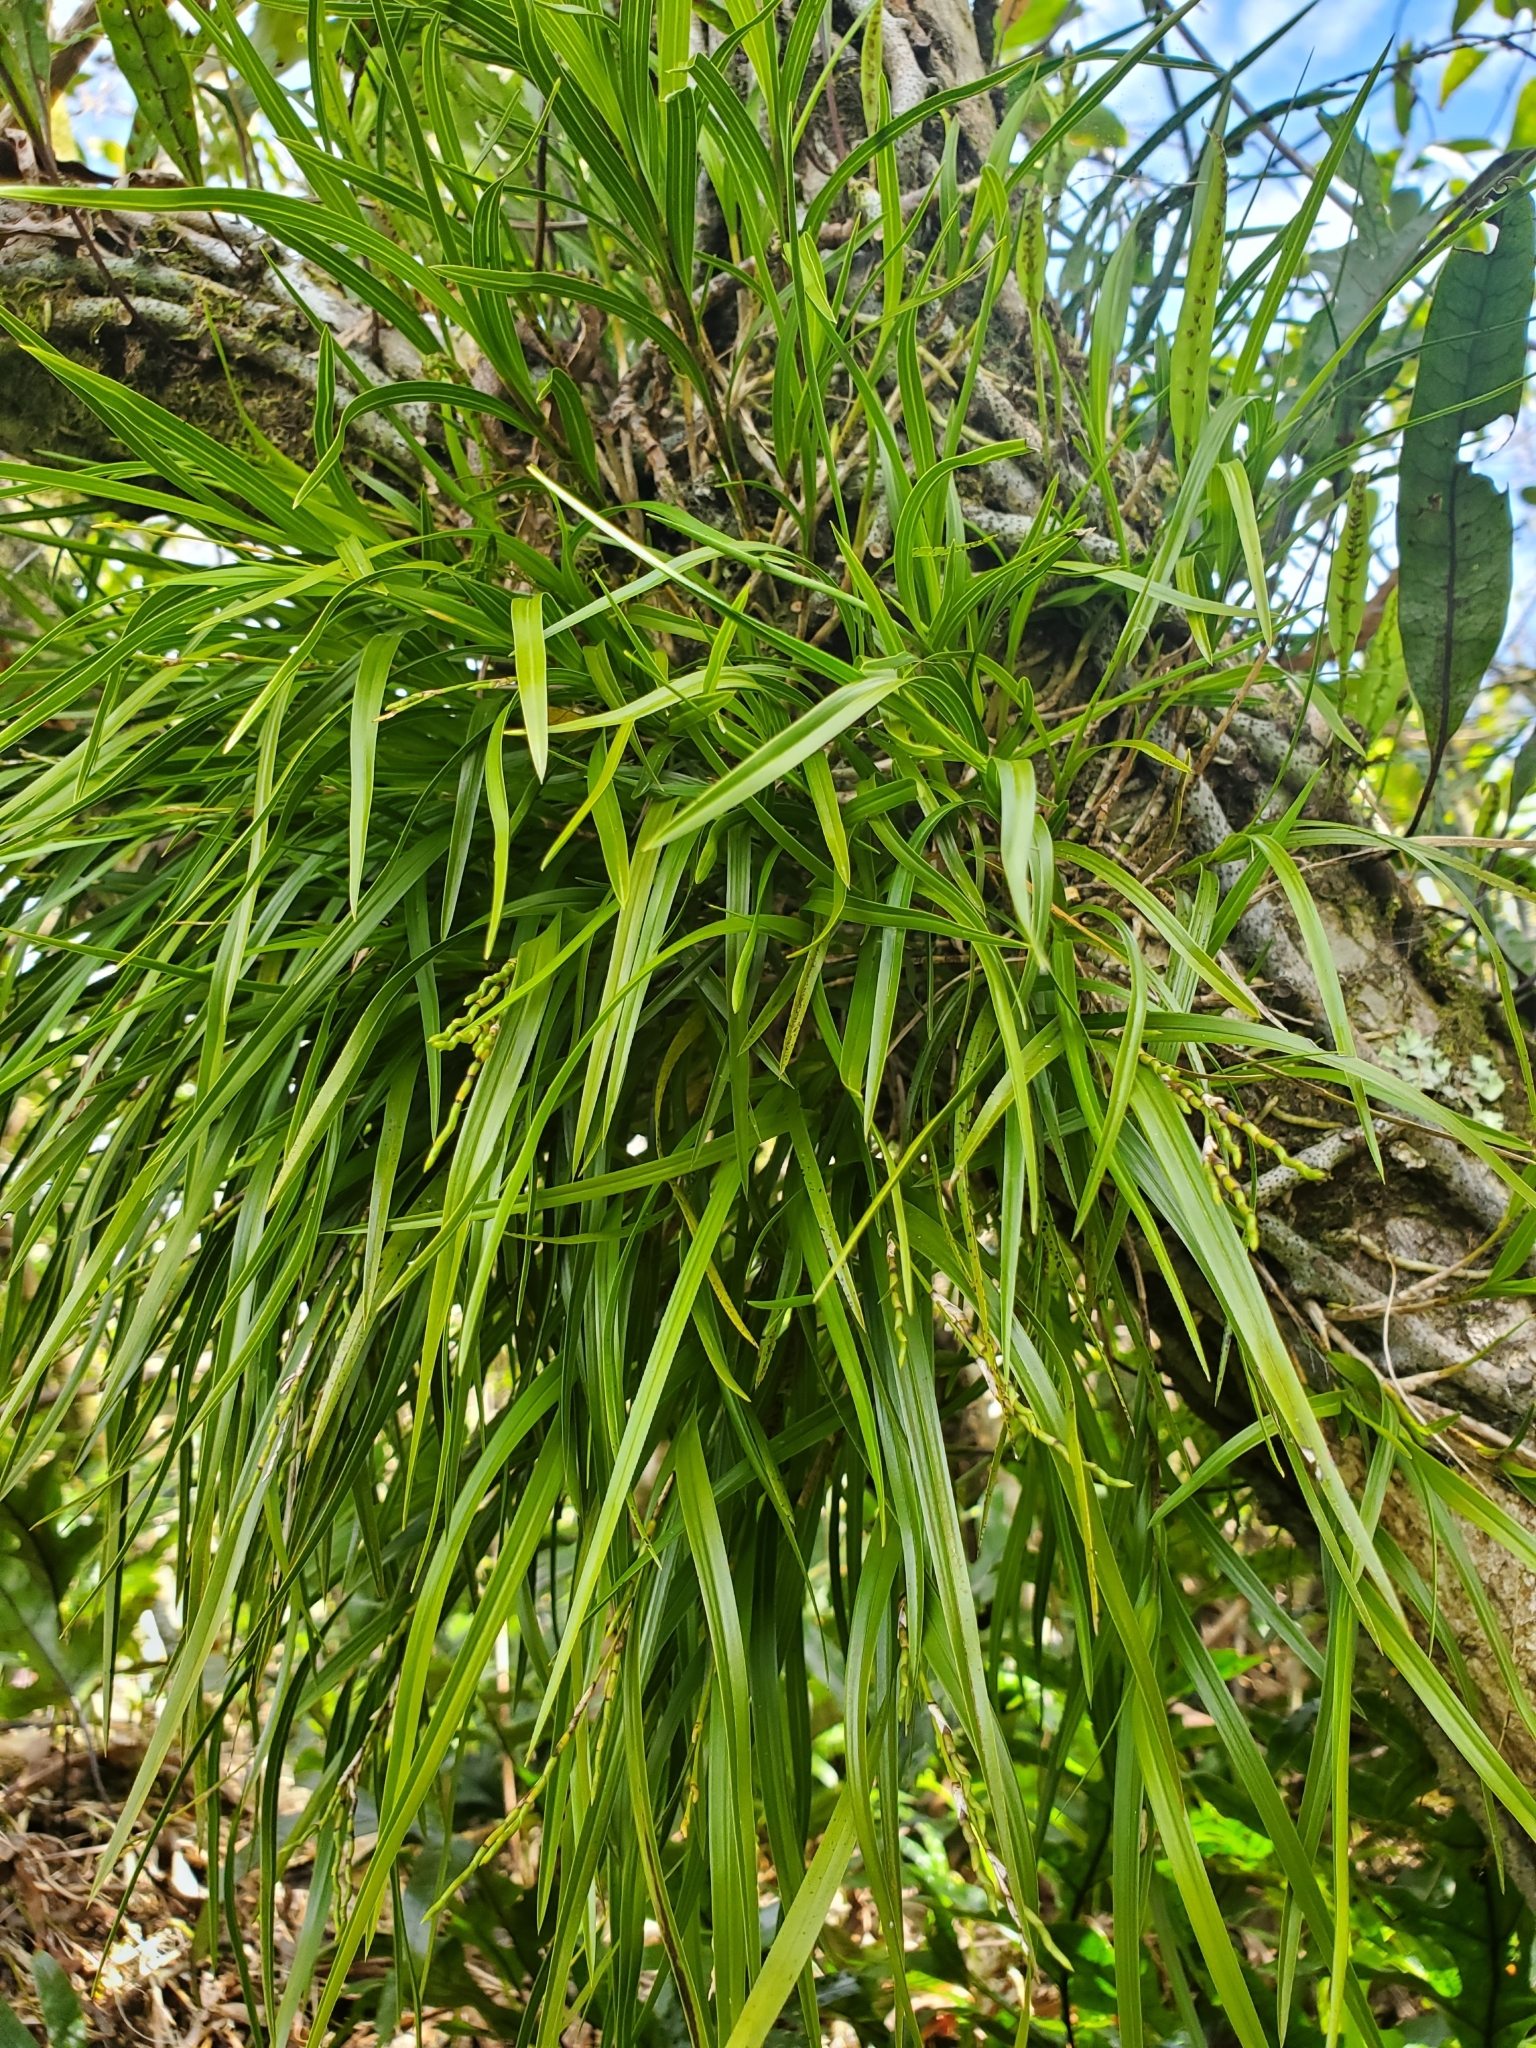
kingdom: Plantae
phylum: Tracheophyta
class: Liliopsida
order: Asparagales
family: Orchidaceae
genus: Earina
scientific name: Earina mucronata
